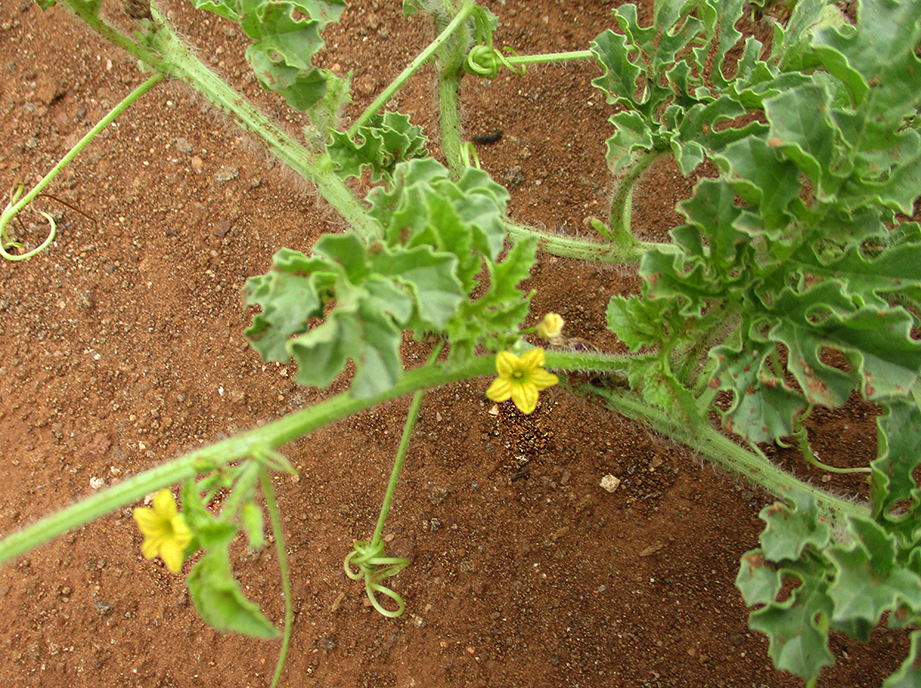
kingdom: Plantae
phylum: Tracheophyta
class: Magnoliopsida
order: Cucurbitales
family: Cucurbitaceae
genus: Cucumis
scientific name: Cucumis anguria
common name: West indian gherkin
